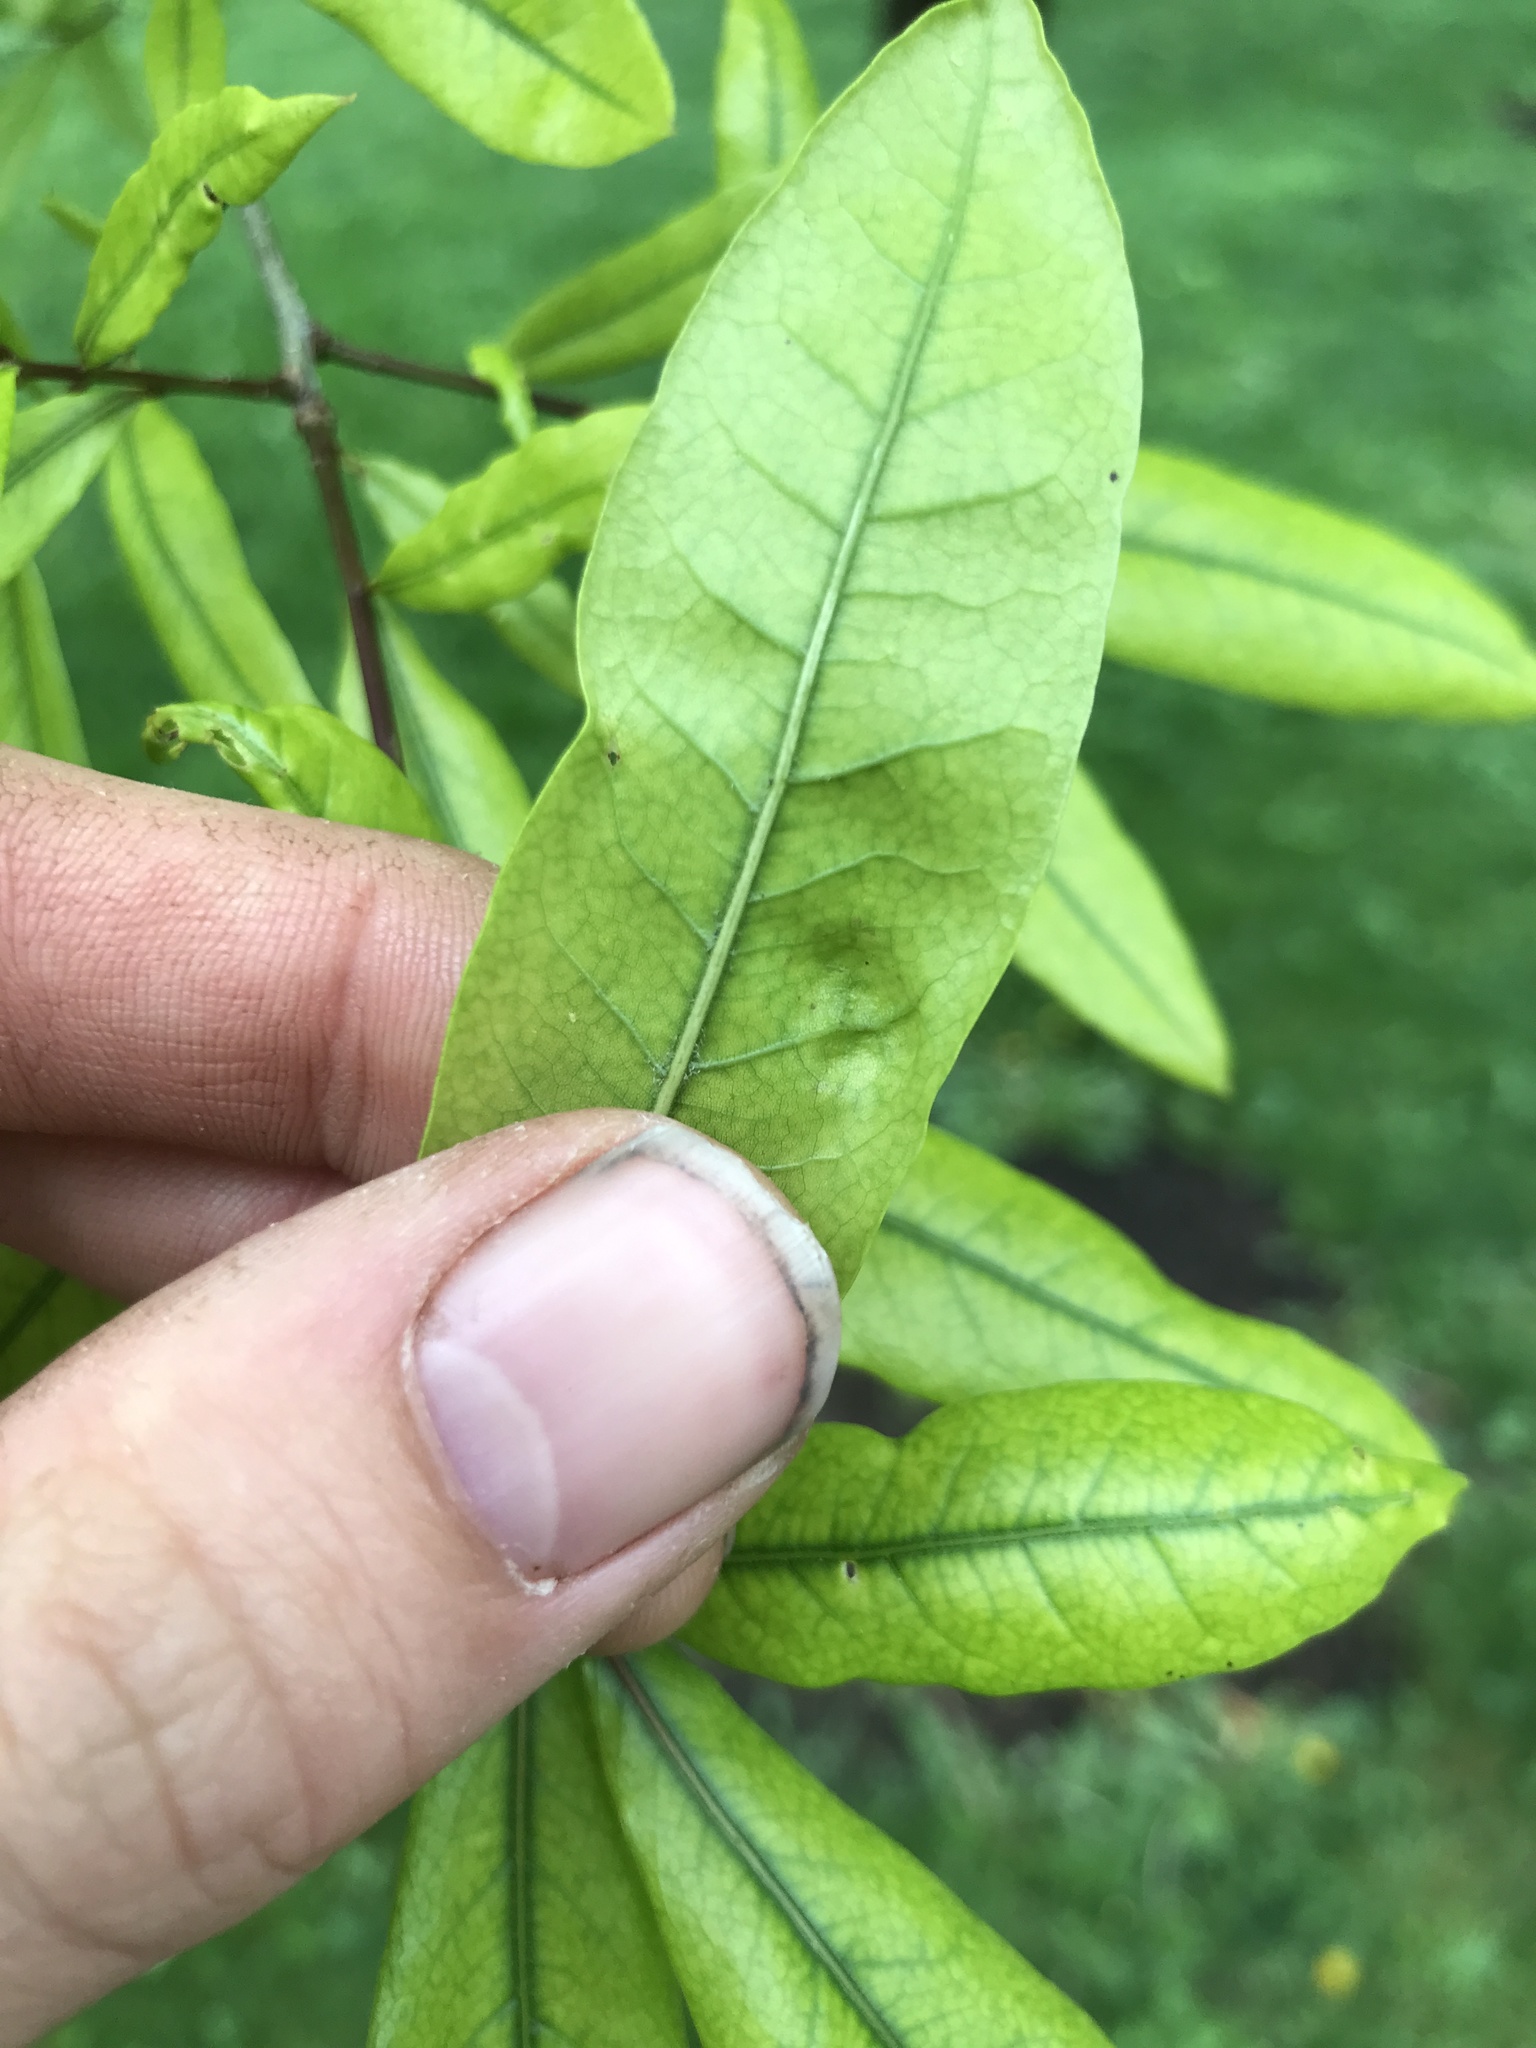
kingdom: Fungi
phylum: Ascomycota
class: Taphrinomycetes
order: Taphrinales
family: Taphrinaceae
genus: Taphrina
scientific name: Taphrina caerulescens
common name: Oak leaf blister
